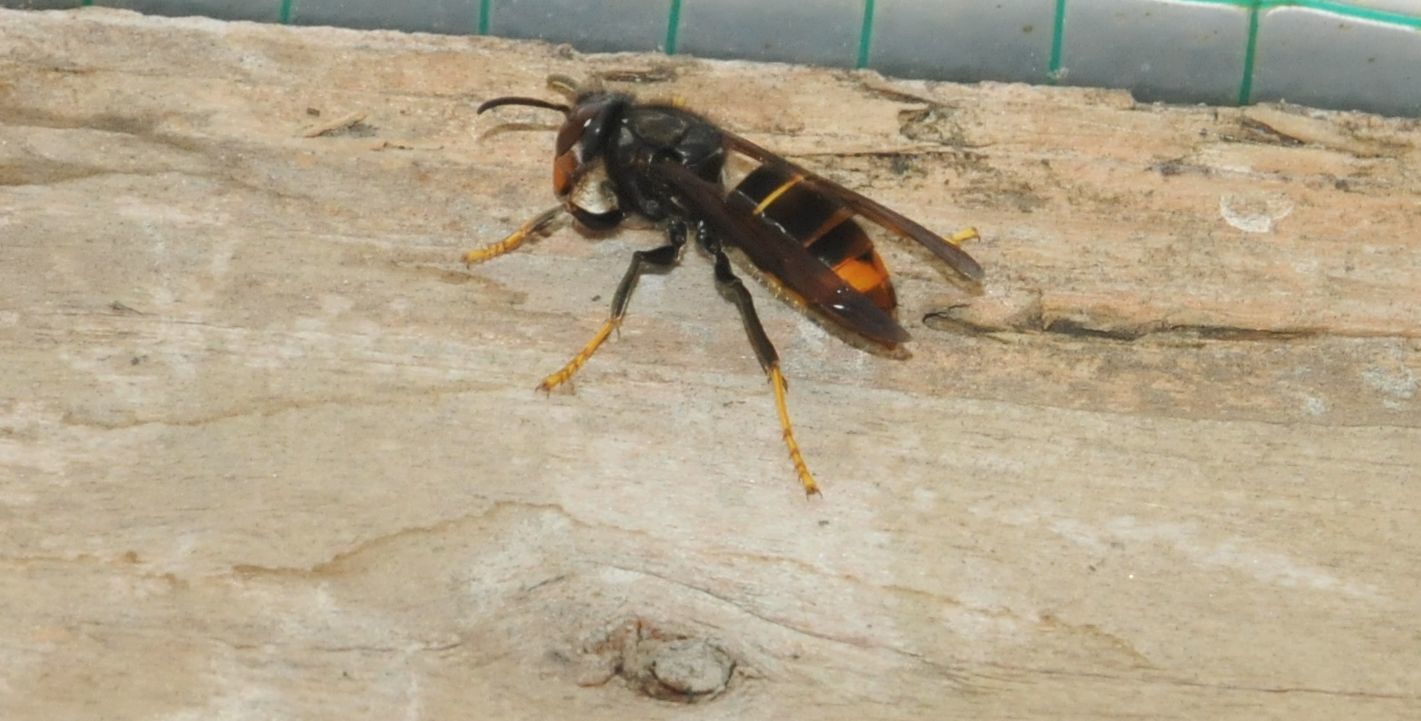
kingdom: Animalia
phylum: Arthropoda
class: Insecta
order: Hymenoptera
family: Vespidae
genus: Vespa
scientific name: Vespa velutina
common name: Asian hornet
